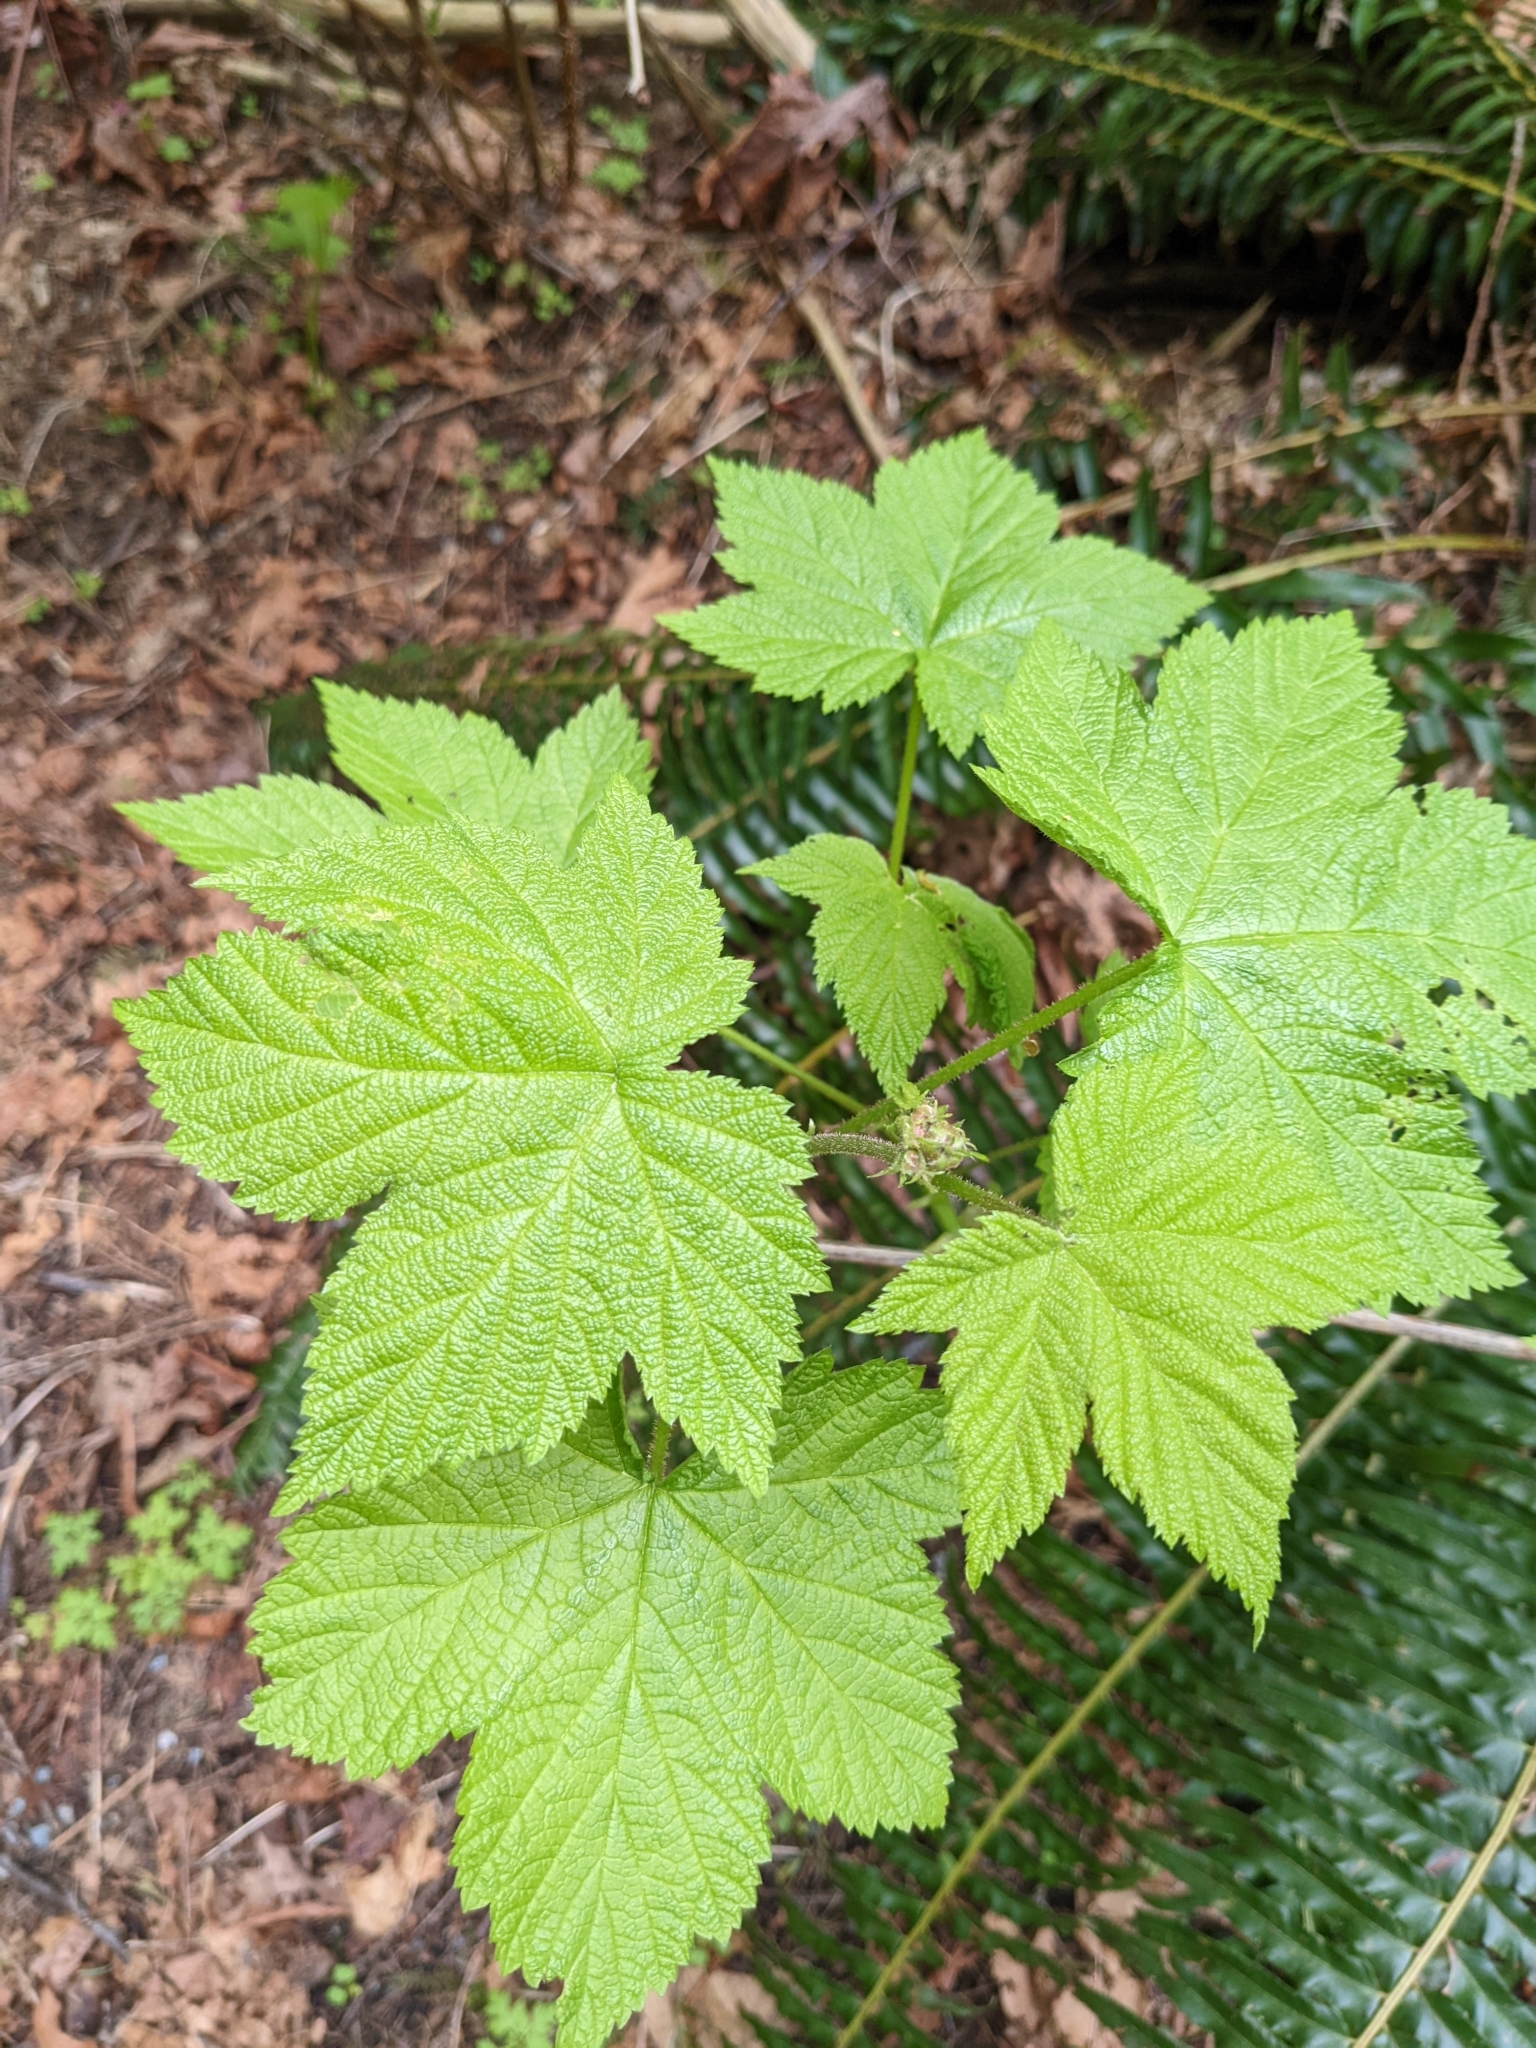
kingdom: Plantae
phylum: Tracheophyta
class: Magnoliopsida
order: Rosales
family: Rosaceae
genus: Rubus
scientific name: Rubus parviflorus
